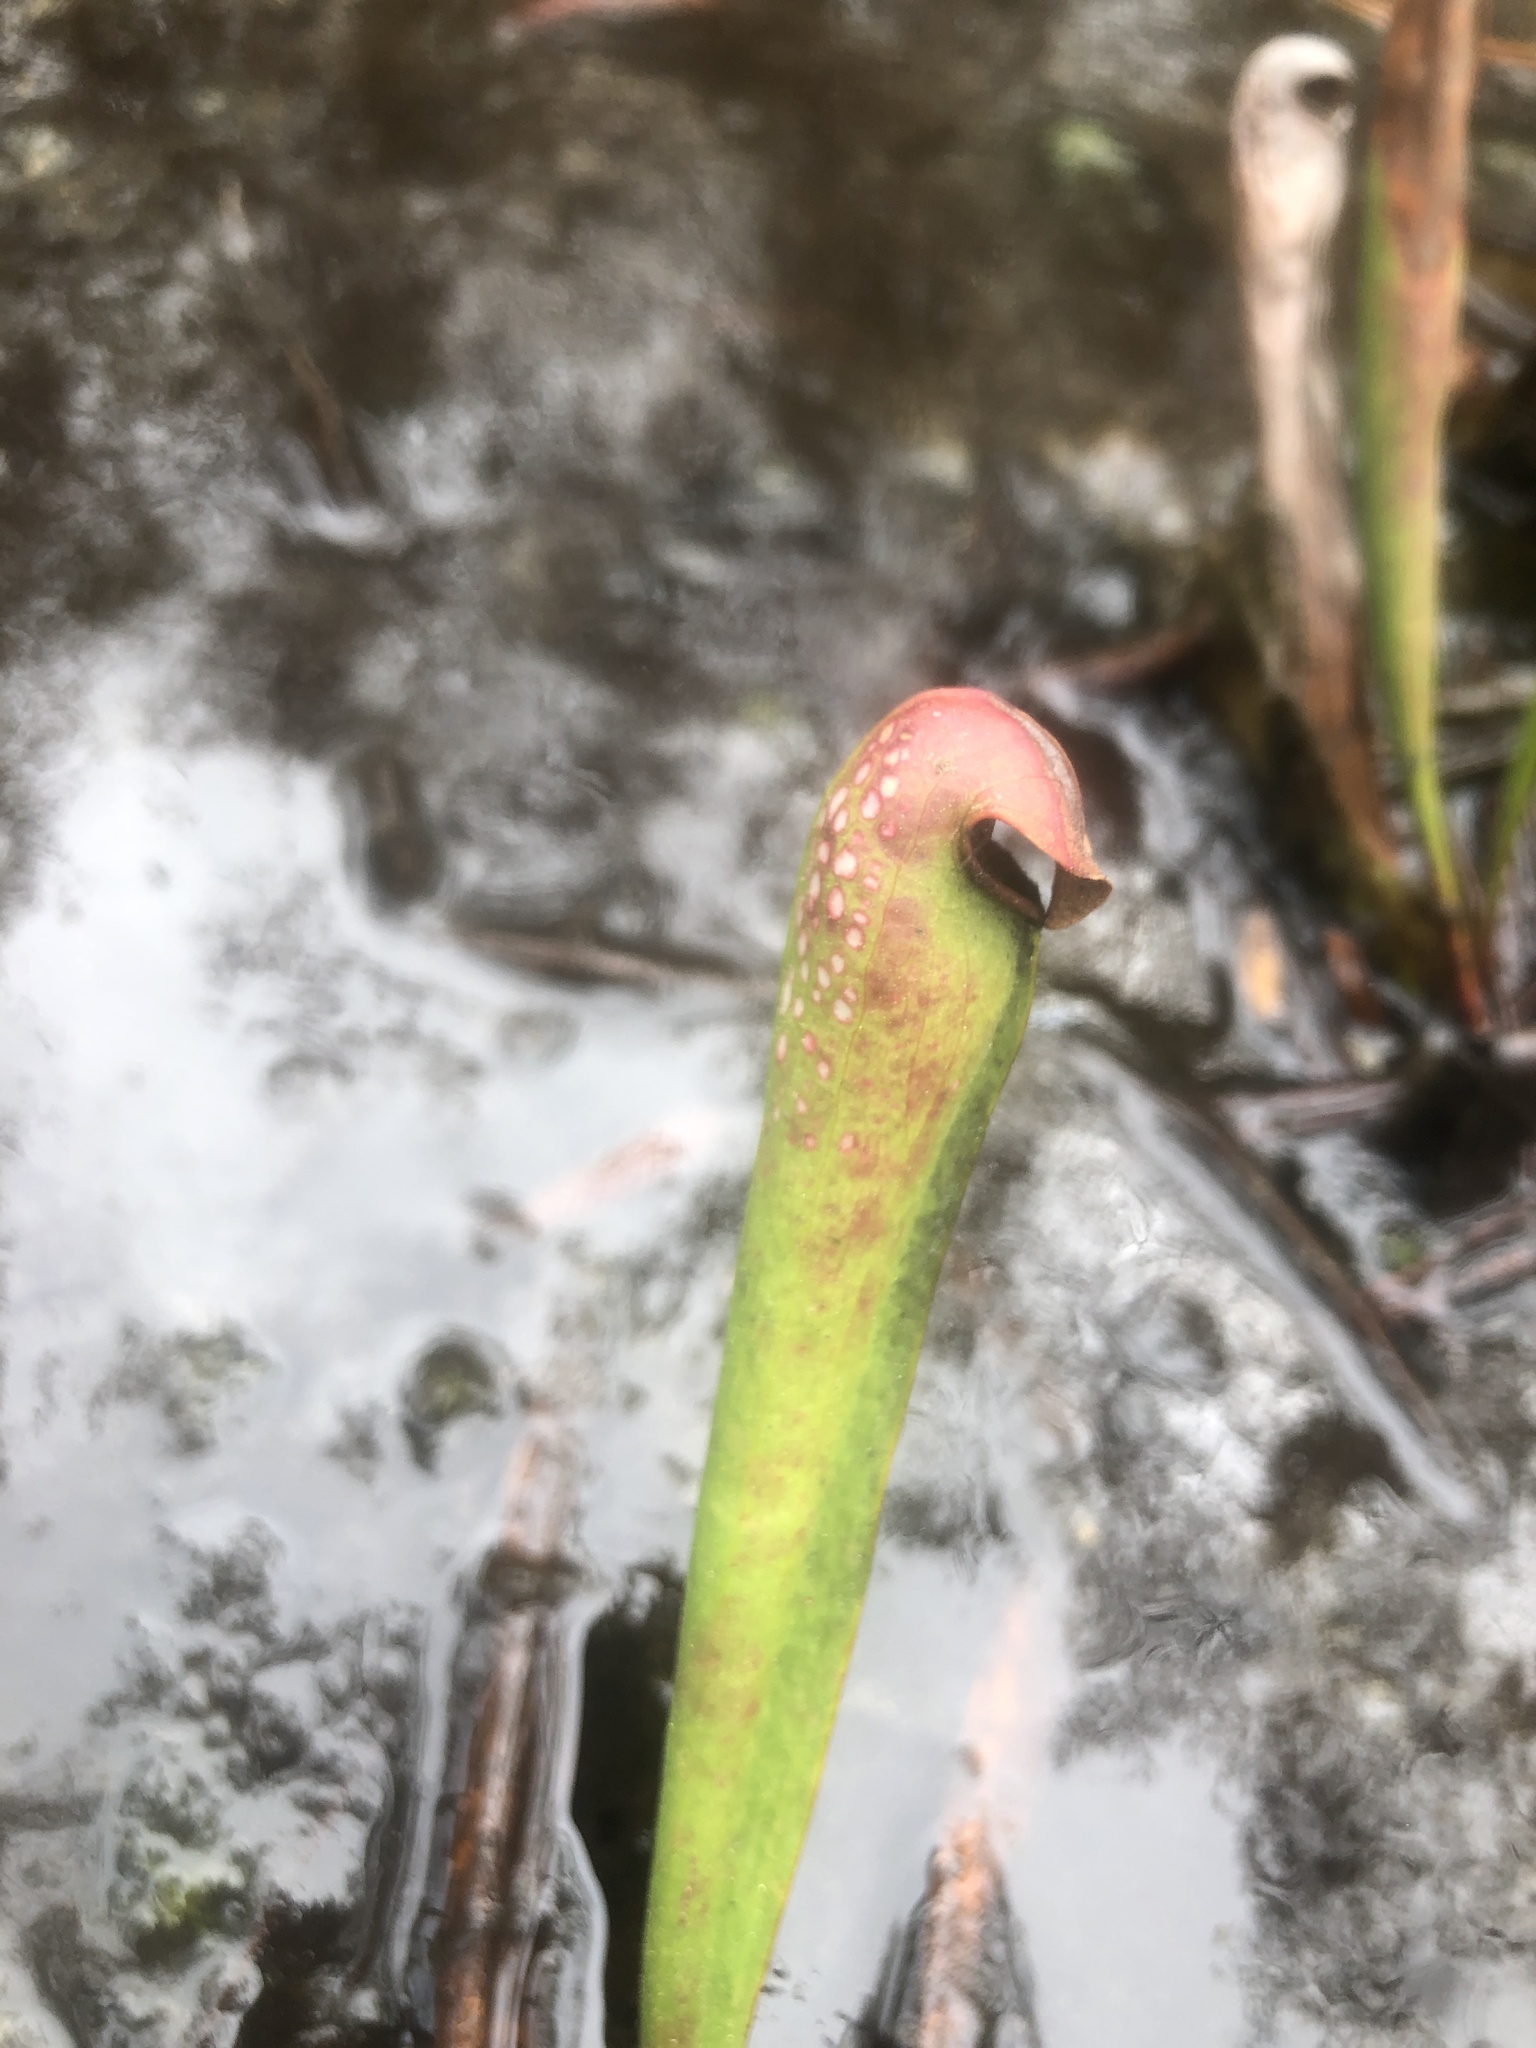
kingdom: Plantae
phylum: Tracheophyta
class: Magnoliopsida
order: Ericales
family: Sarraceniaceae
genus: Sarracenia
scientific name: Sarracenia minor
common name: Rainhat-trumpet
